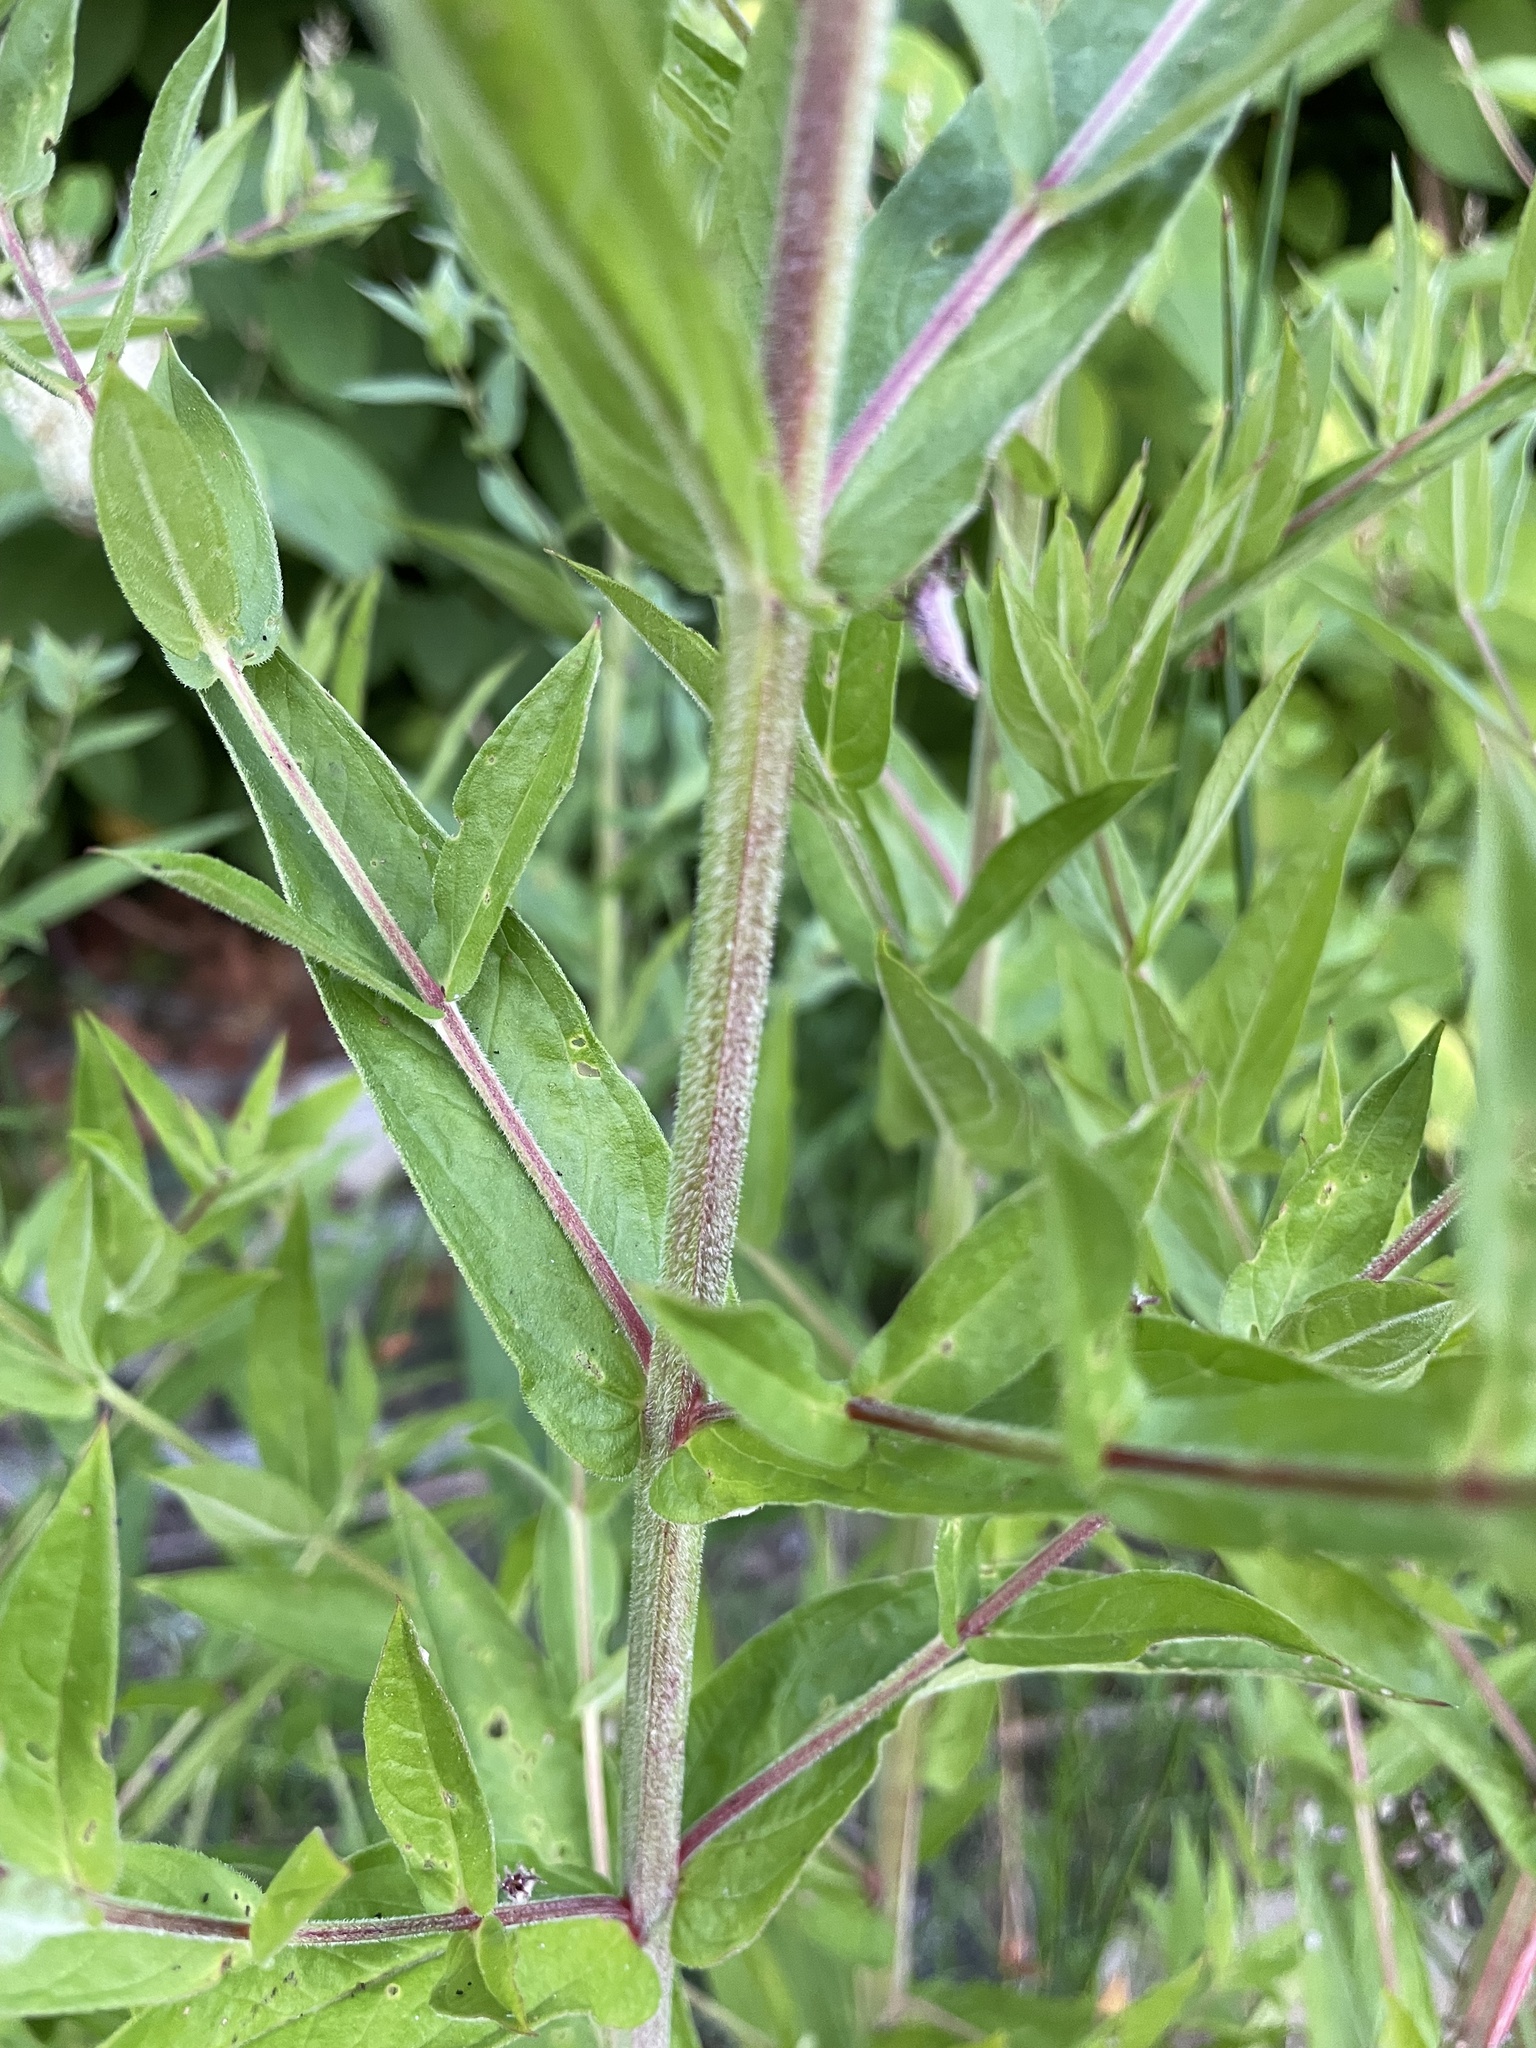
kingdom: Plantae
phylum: Tracheophyta
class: Magnoliopsida
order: Myrtales
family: Lythraceae
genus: Lythrum
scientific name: Lythrum salicaria
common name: Purple loosestrife
